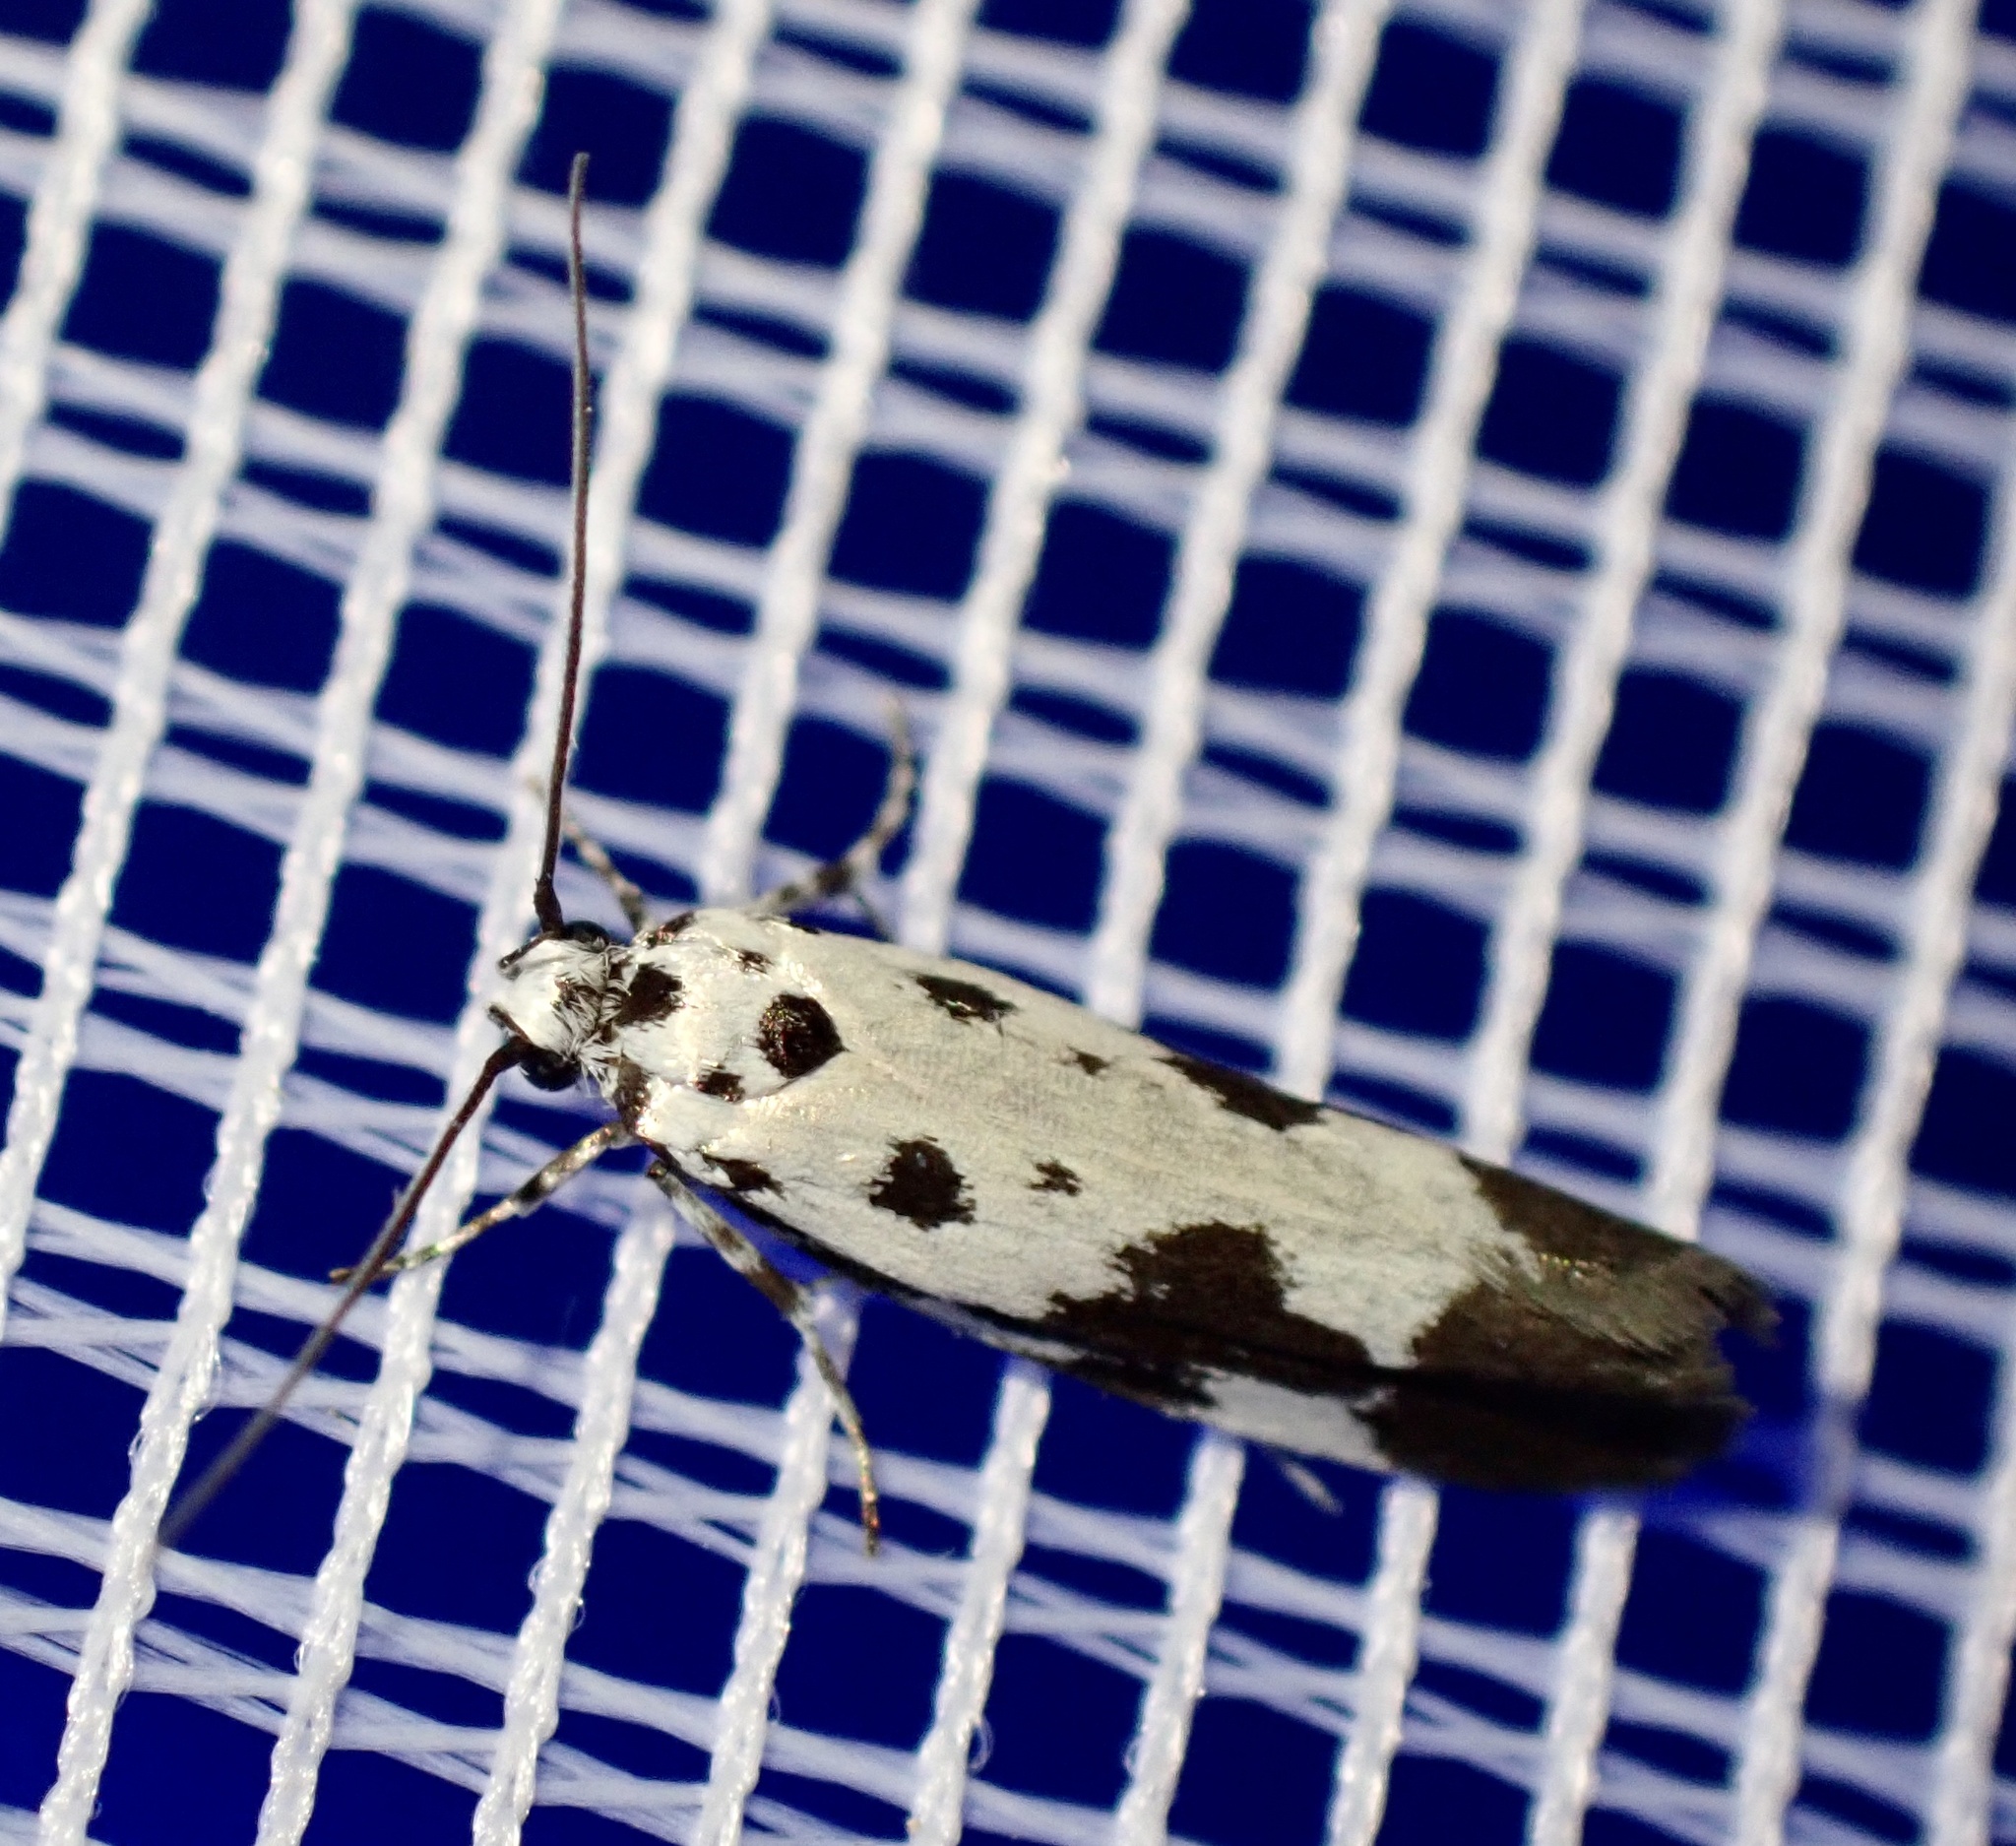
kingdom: Animalia
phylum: Arthropoda
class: Insecta
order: Lepidoptera
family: Ethmiidae
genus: Ethmia
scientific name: Ethmia quadrillella
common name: Comfrey ermel
